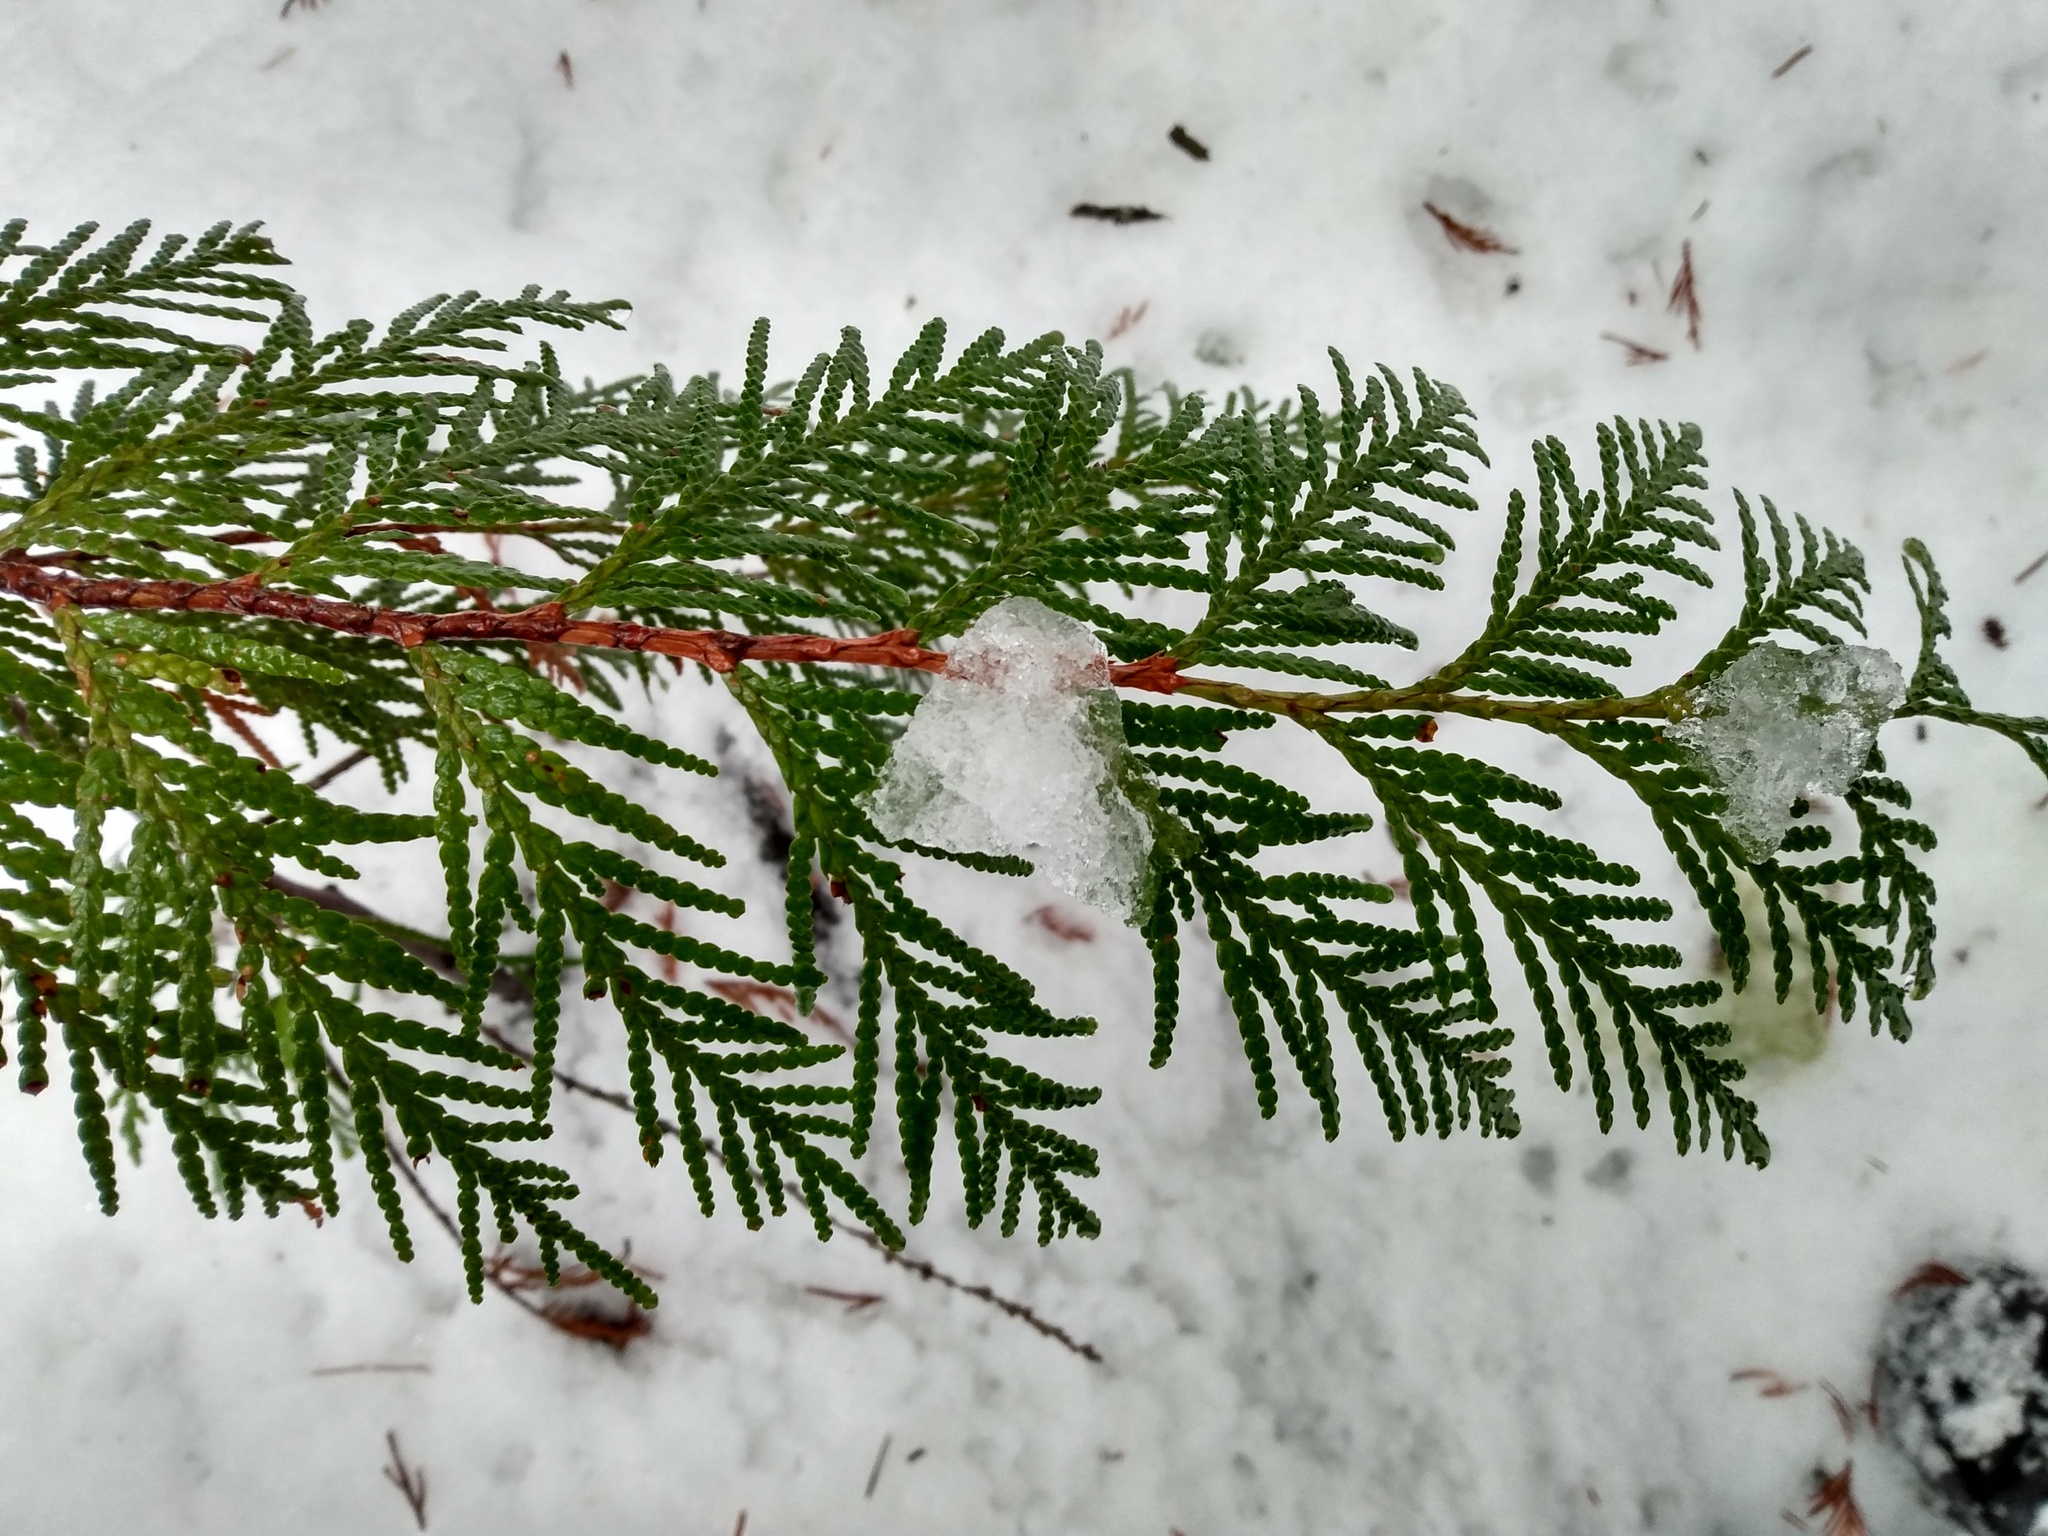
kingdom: Plantae
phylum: Tracheophyta
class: Pinopsida
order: Pinales
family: Cupressaceae
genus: Thuja
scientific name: Thuja plicata
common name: Western red-cedar
